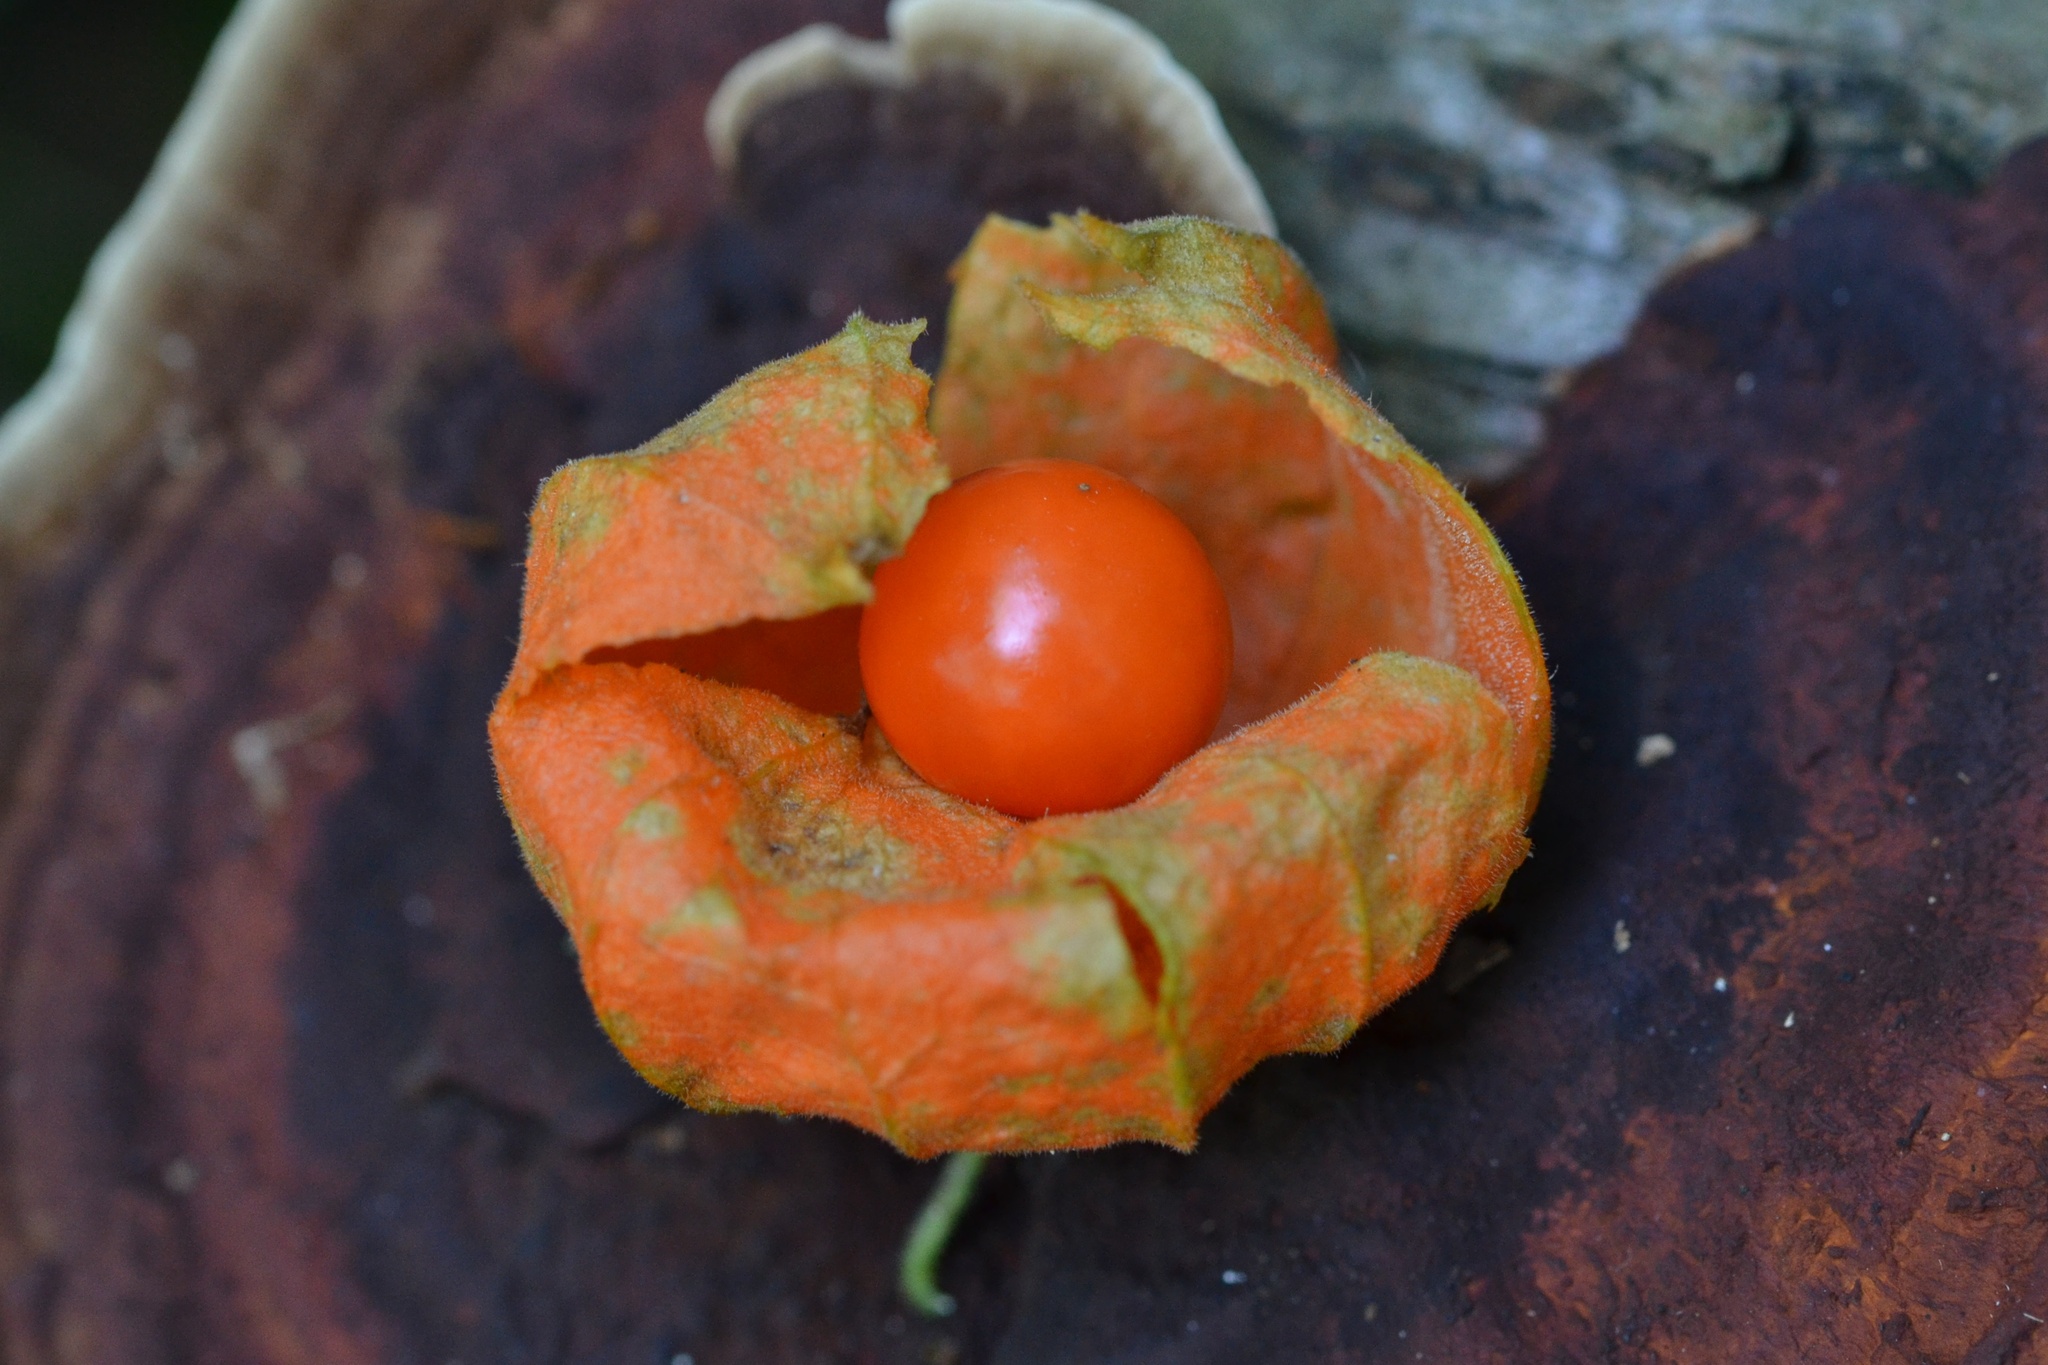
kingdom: Plantae
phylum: Tracheophyta
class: Magnoliopsida
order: Solanales
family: Solanaceae
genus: Alkekengi
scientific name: Alkekengi officinarum
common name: Japanese-lantern
